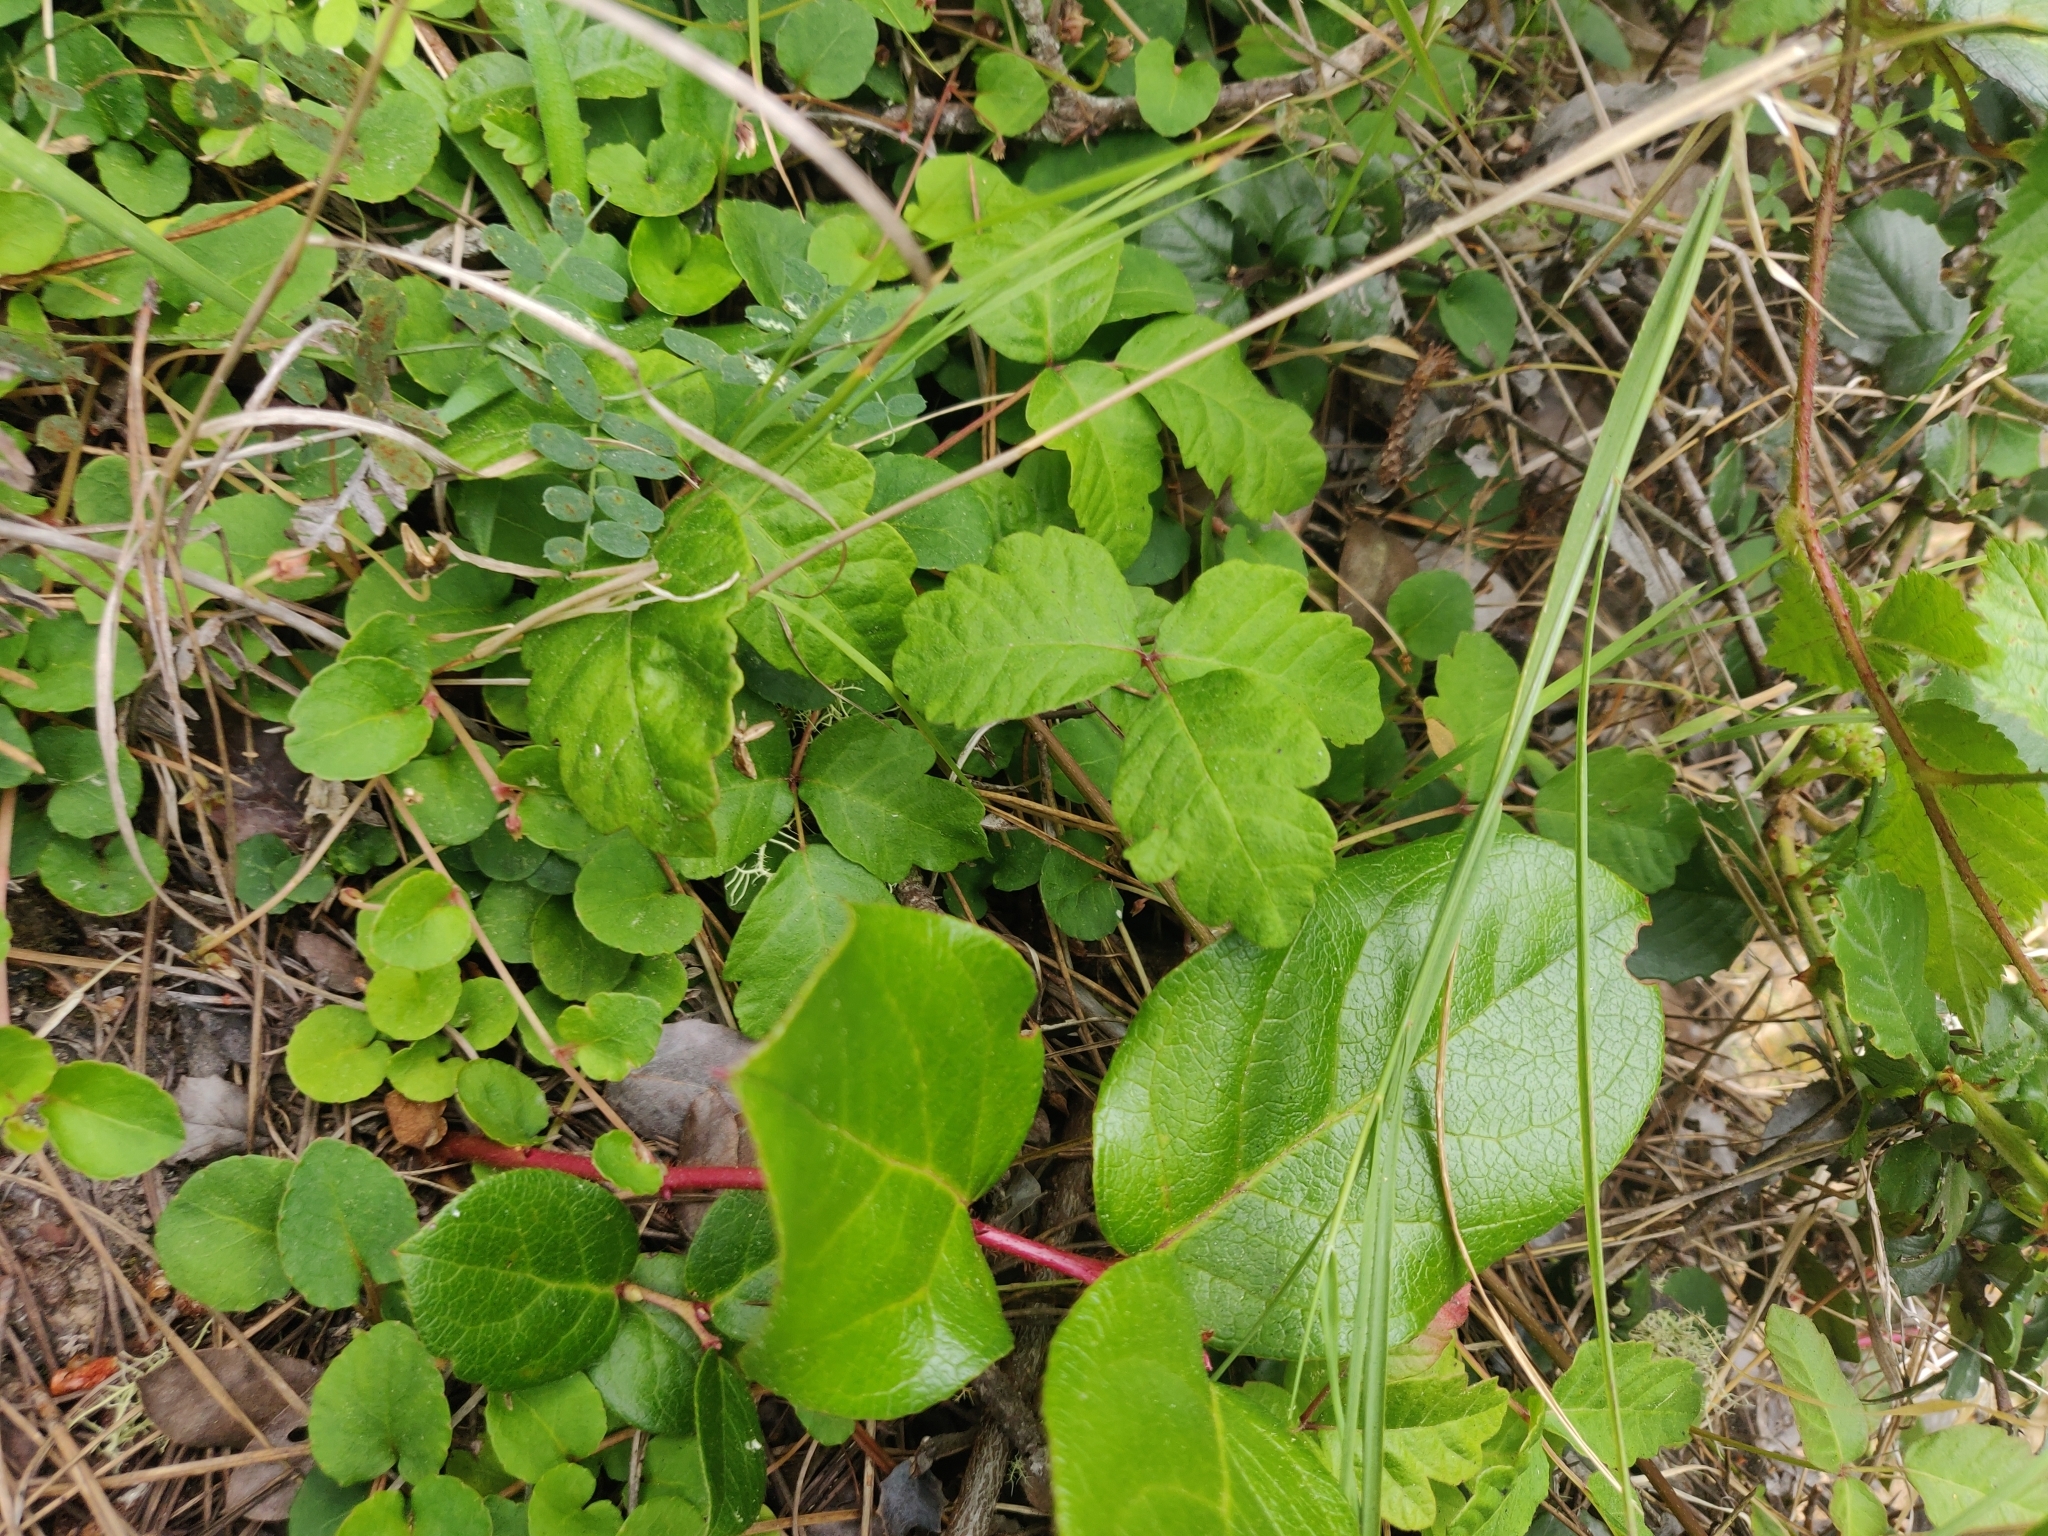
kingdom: Plantae
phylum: Tracheophyta
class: Magnoliopsida
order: Sapindales
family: Anacardiaceae
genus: Toxicodendron
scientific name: Toxicodendron diversilobum
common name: Pacific poison-oak
